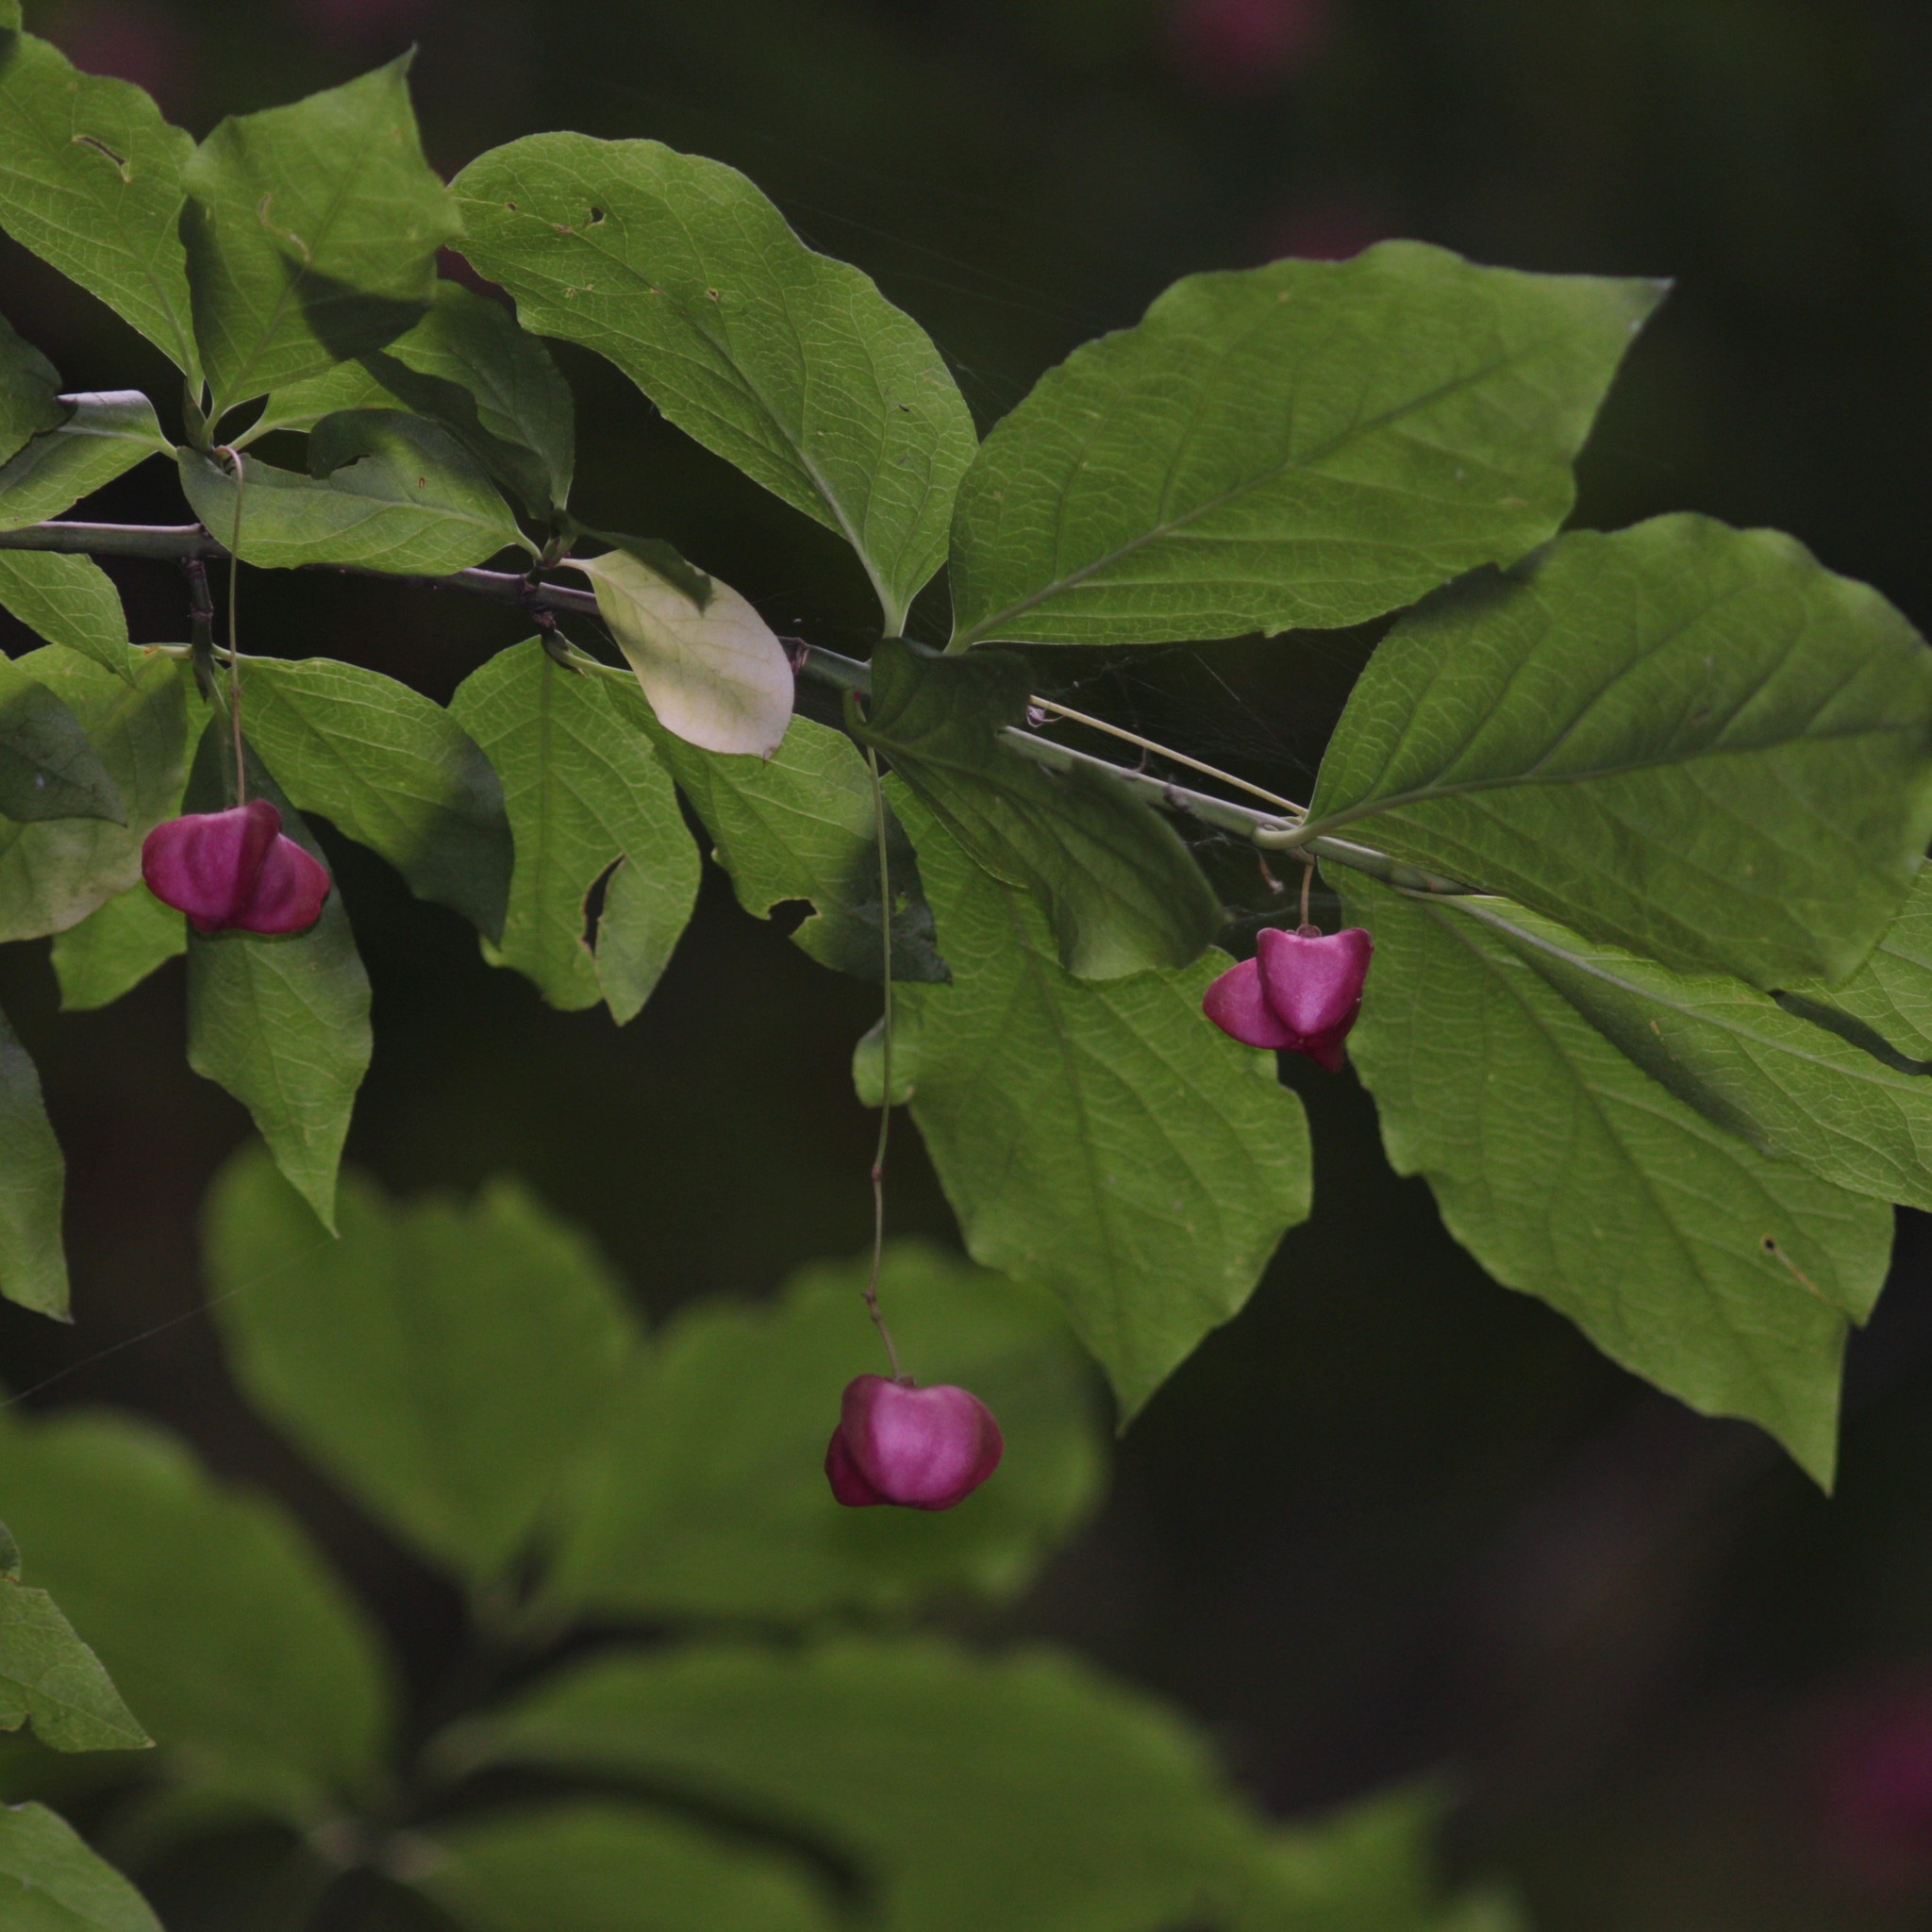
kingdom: Plantae
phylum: Tracheophyta
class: Magnoliopsida
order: Celastrales
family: Celastraceae
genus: Euonymus
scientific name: Euonymus europaeus
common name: Spindle
